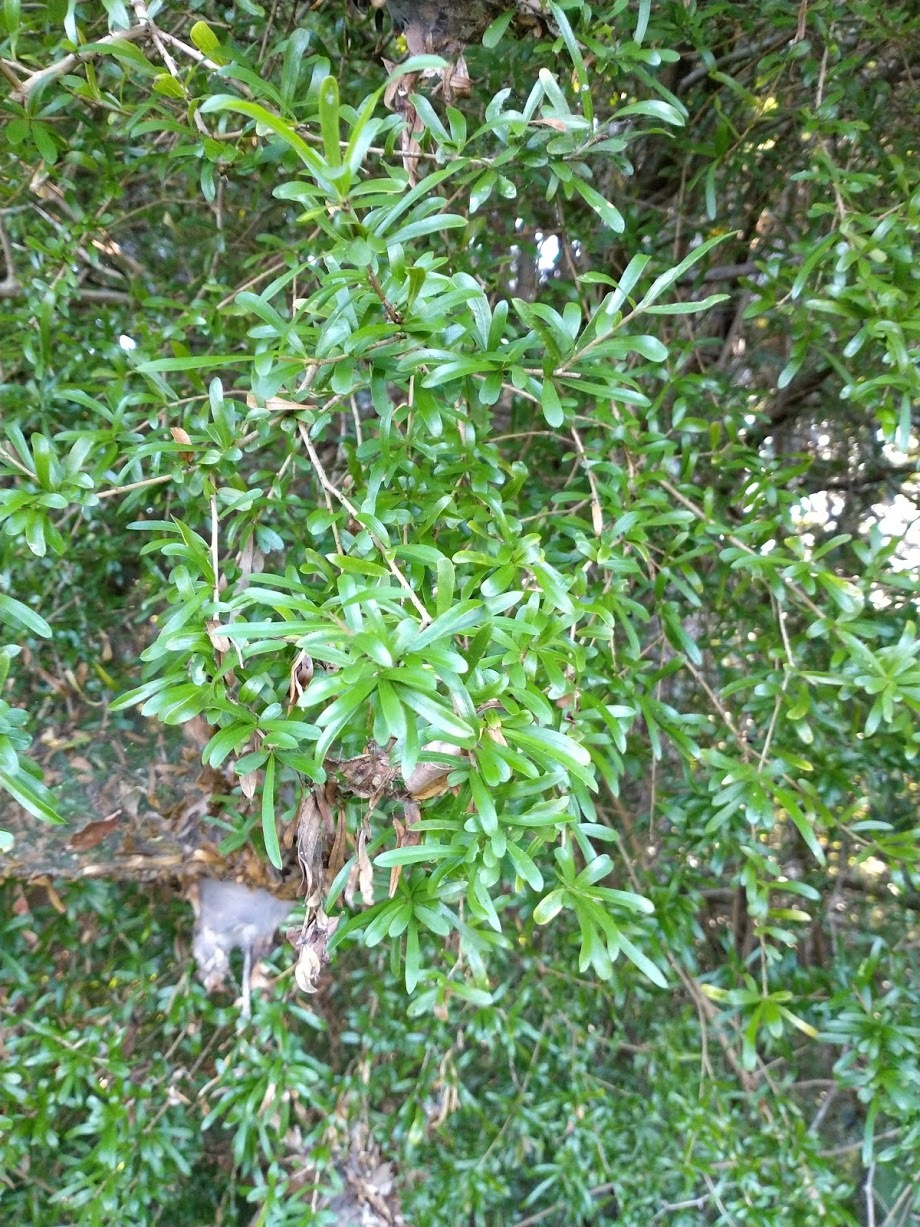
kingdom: Plantae
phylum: Tracheophyta
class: Magnoliopsida
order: Apiales
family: Pittosporaceae
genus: Pittosporum
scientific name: Pittosporum viscidum
